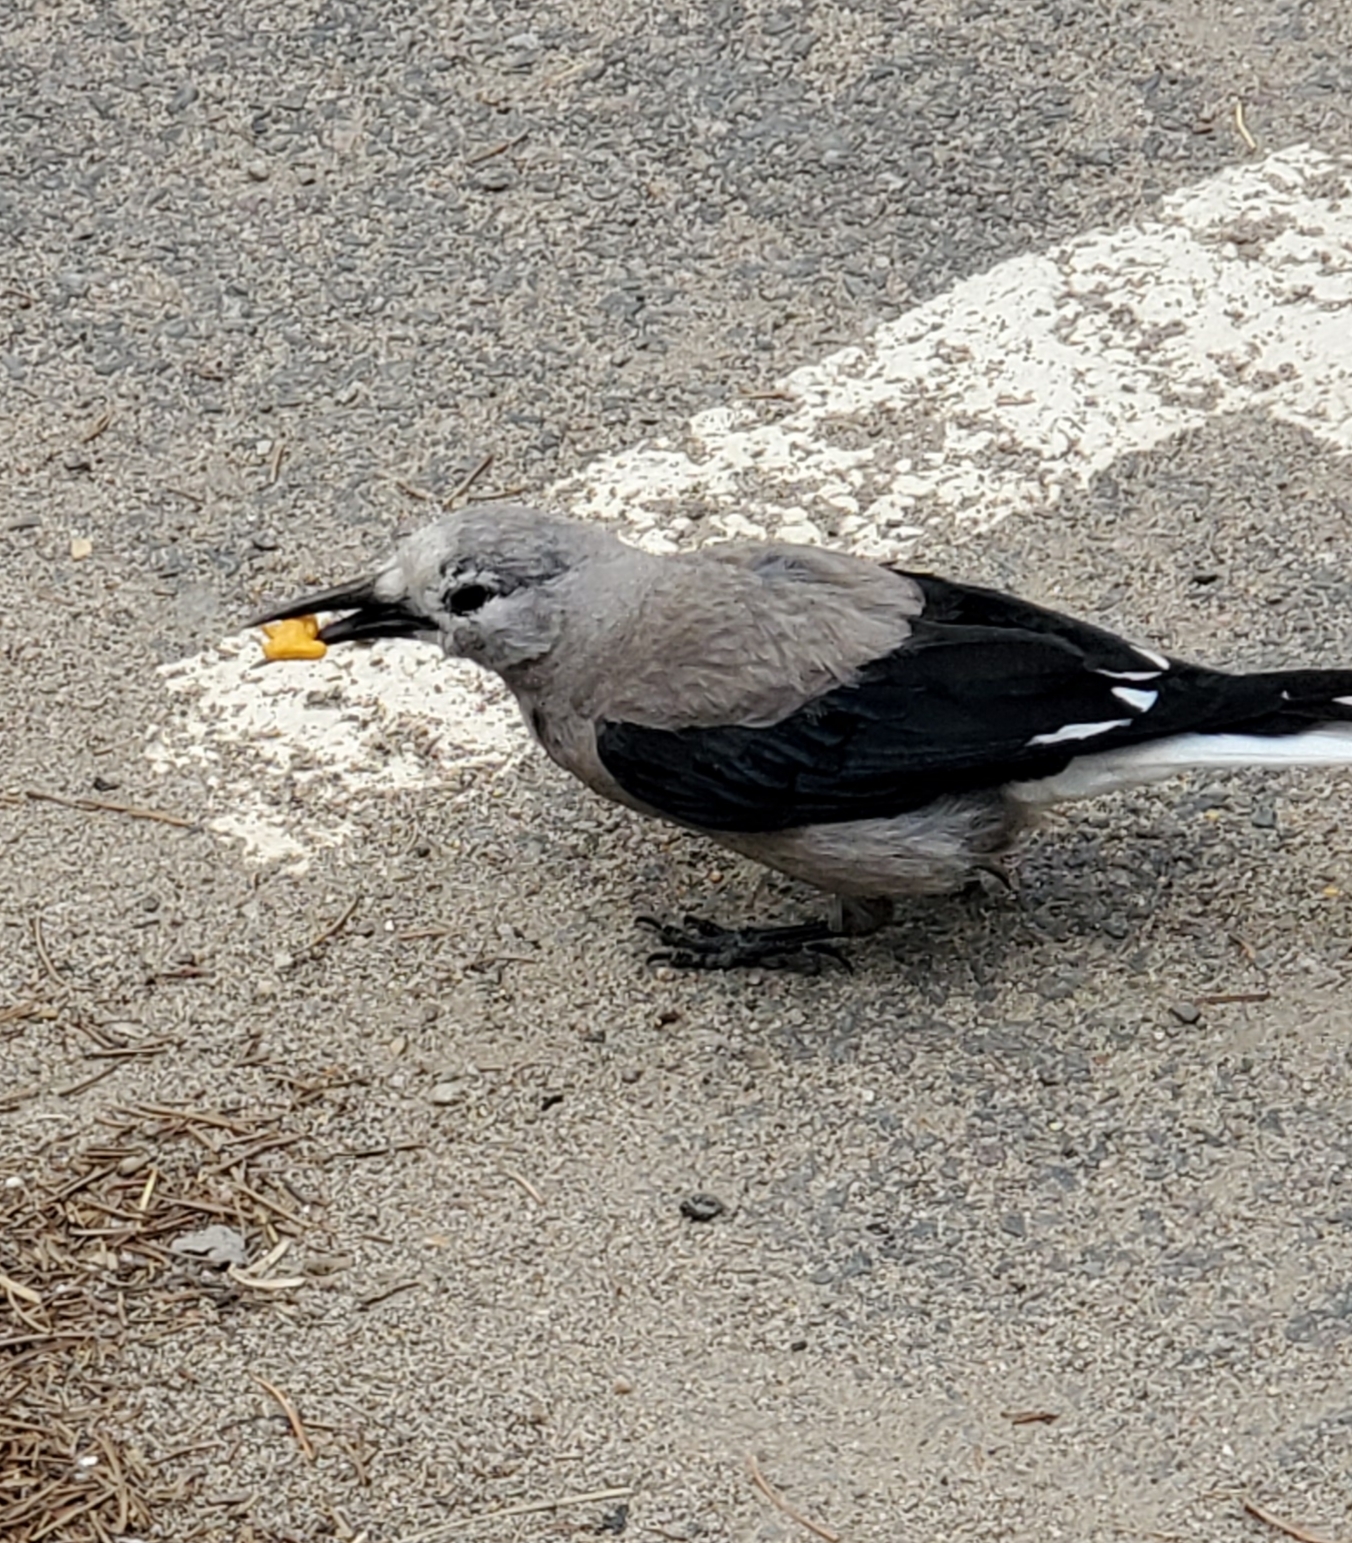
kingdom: Animalia
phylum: Chordata
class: Aves
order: Passeriformes
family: Corvidae
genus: Nucifraga
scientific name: Nucifraga columbiana
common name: Clark's nutcracker
